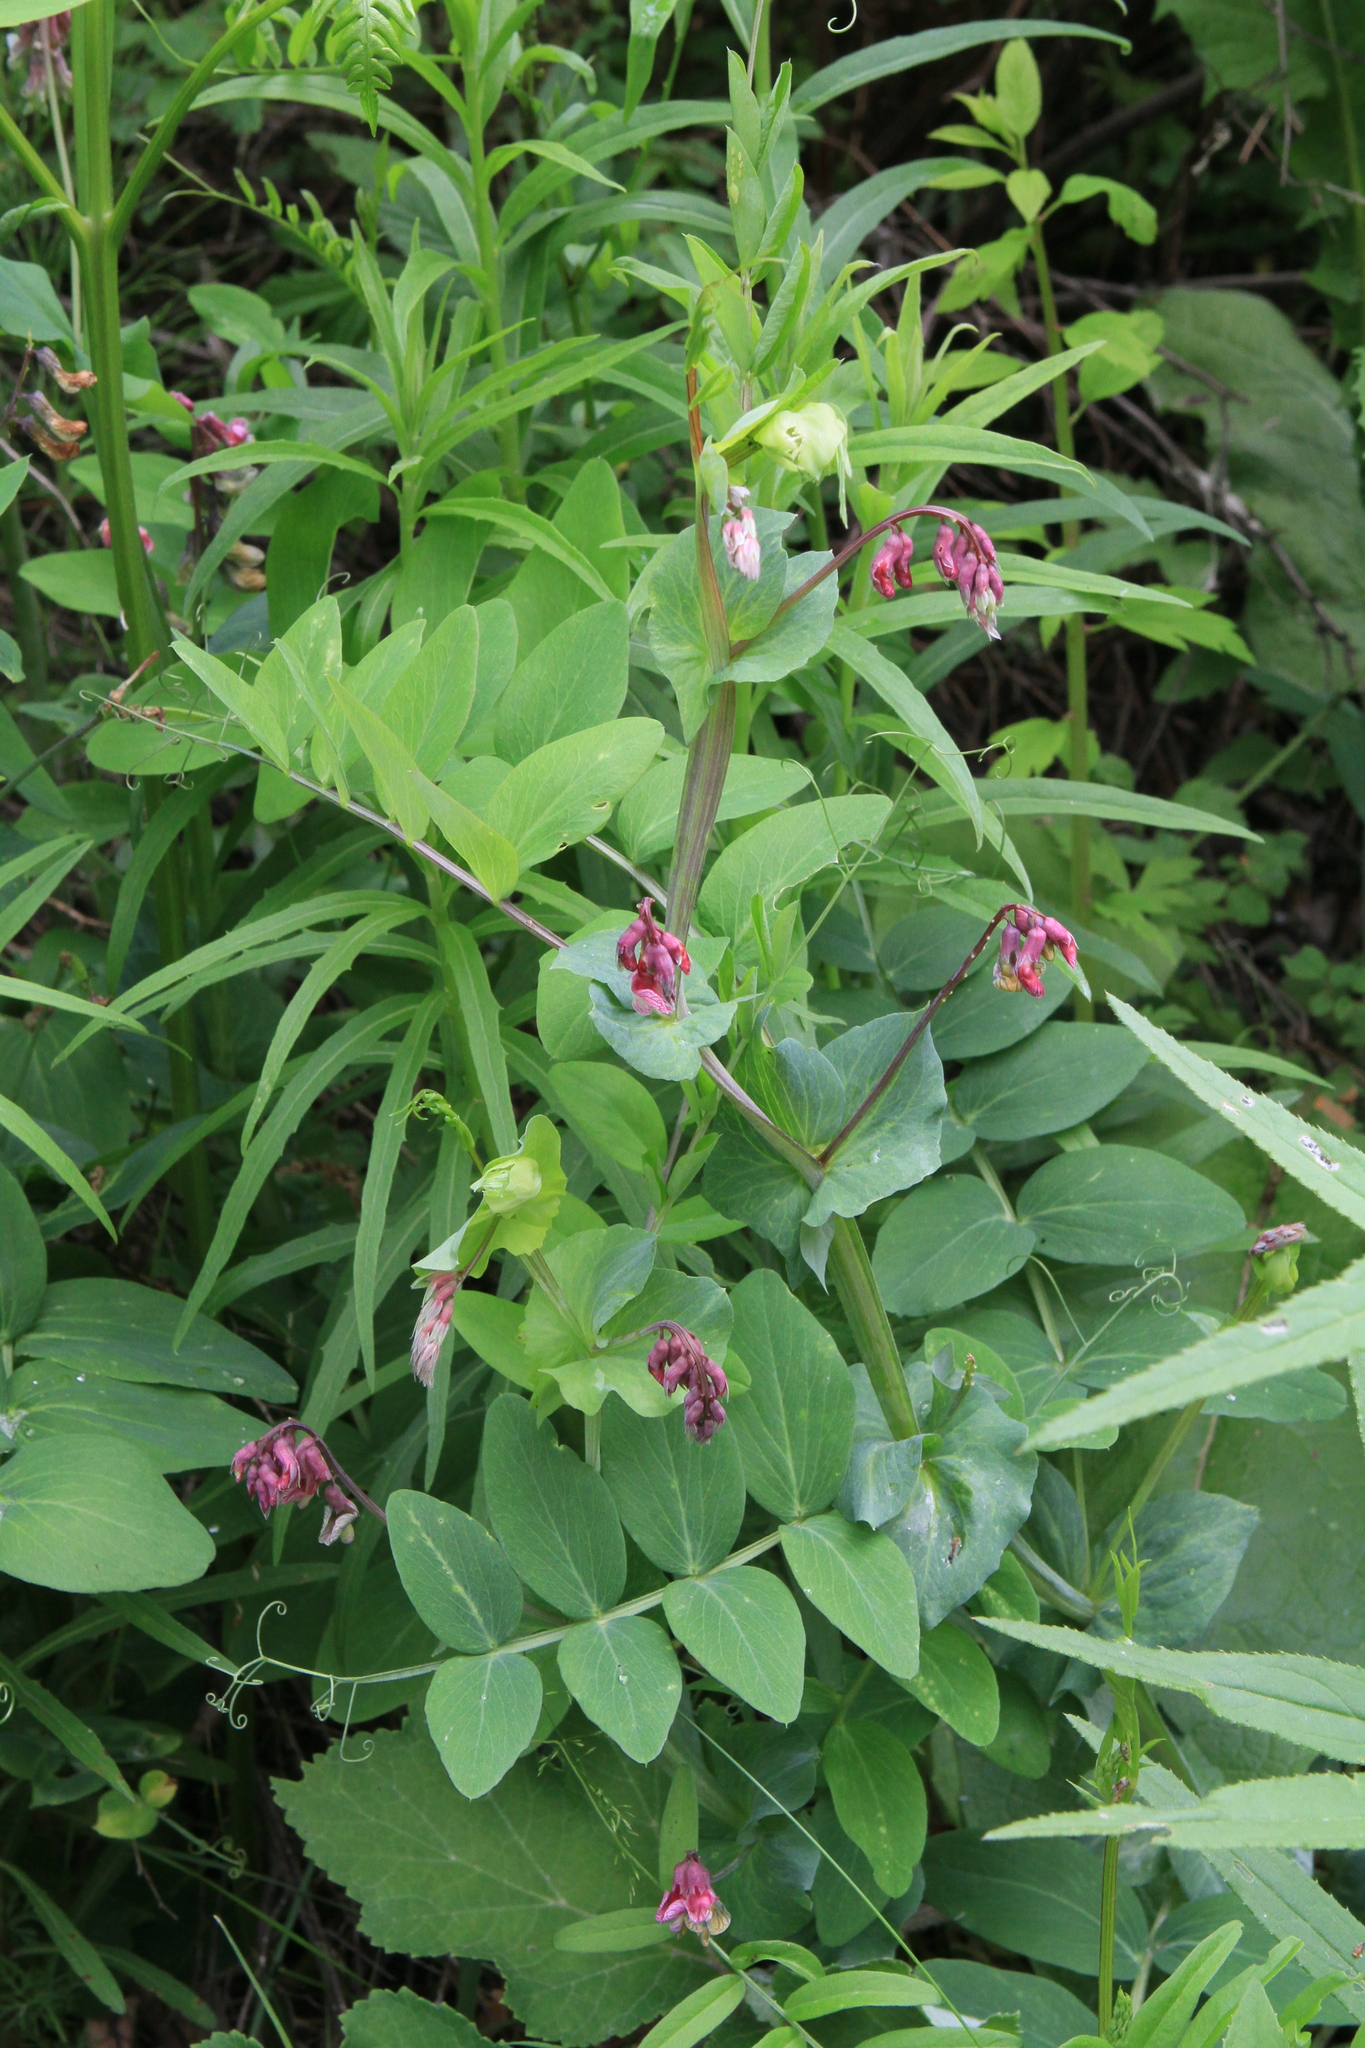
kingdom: Plantae
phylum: Tracheophyta
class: Magnoliopsida
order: Fabales
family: Fabaceae
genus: Lathyrus
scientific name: Lathyrus pisiformis
